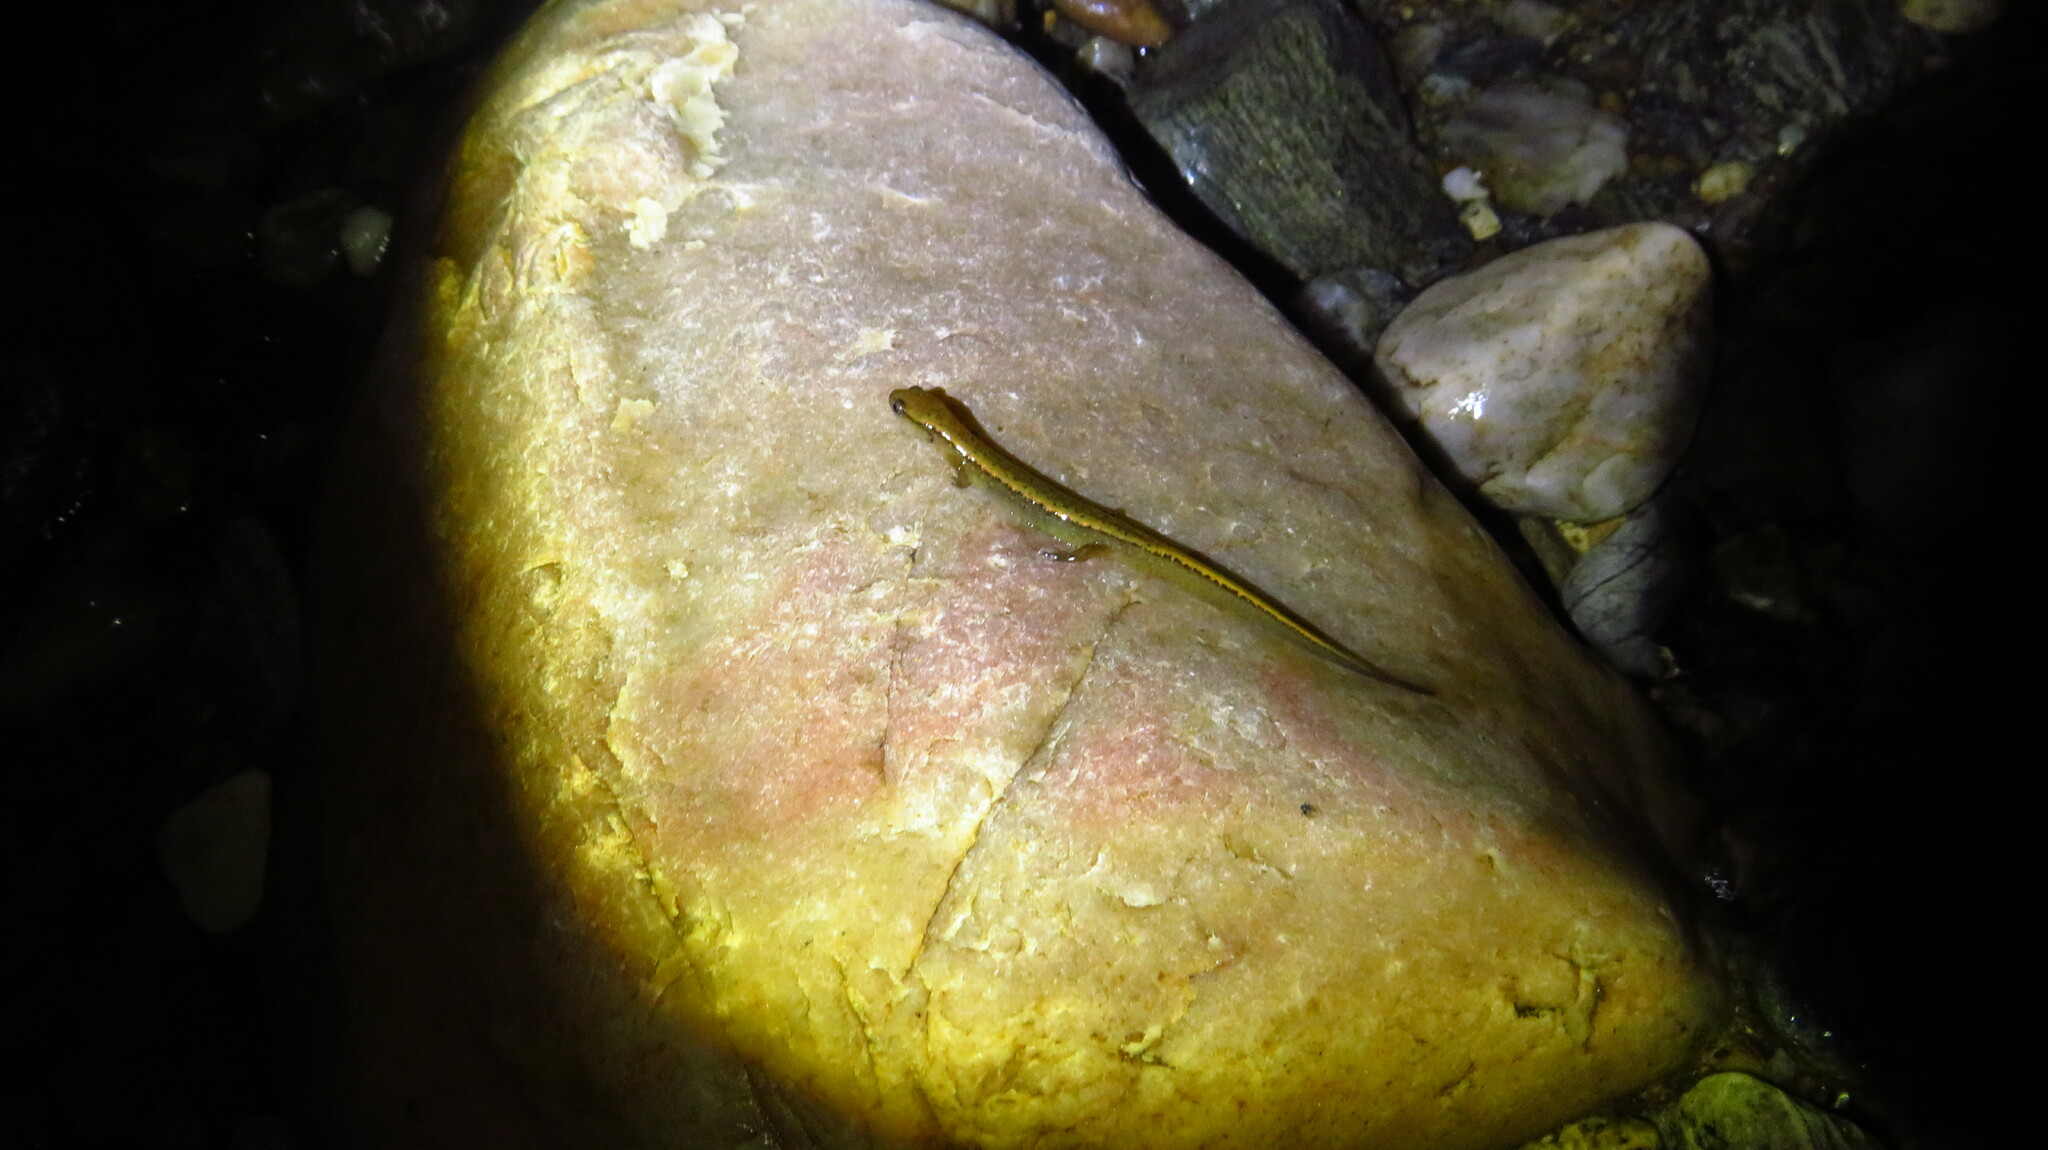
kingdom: Animalia
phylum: Chordata
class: Amphibia
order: Caudata
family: Plethodontidae
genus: Eurycea
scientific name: Eurycea bislineata
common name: Northern two-lined salamander
